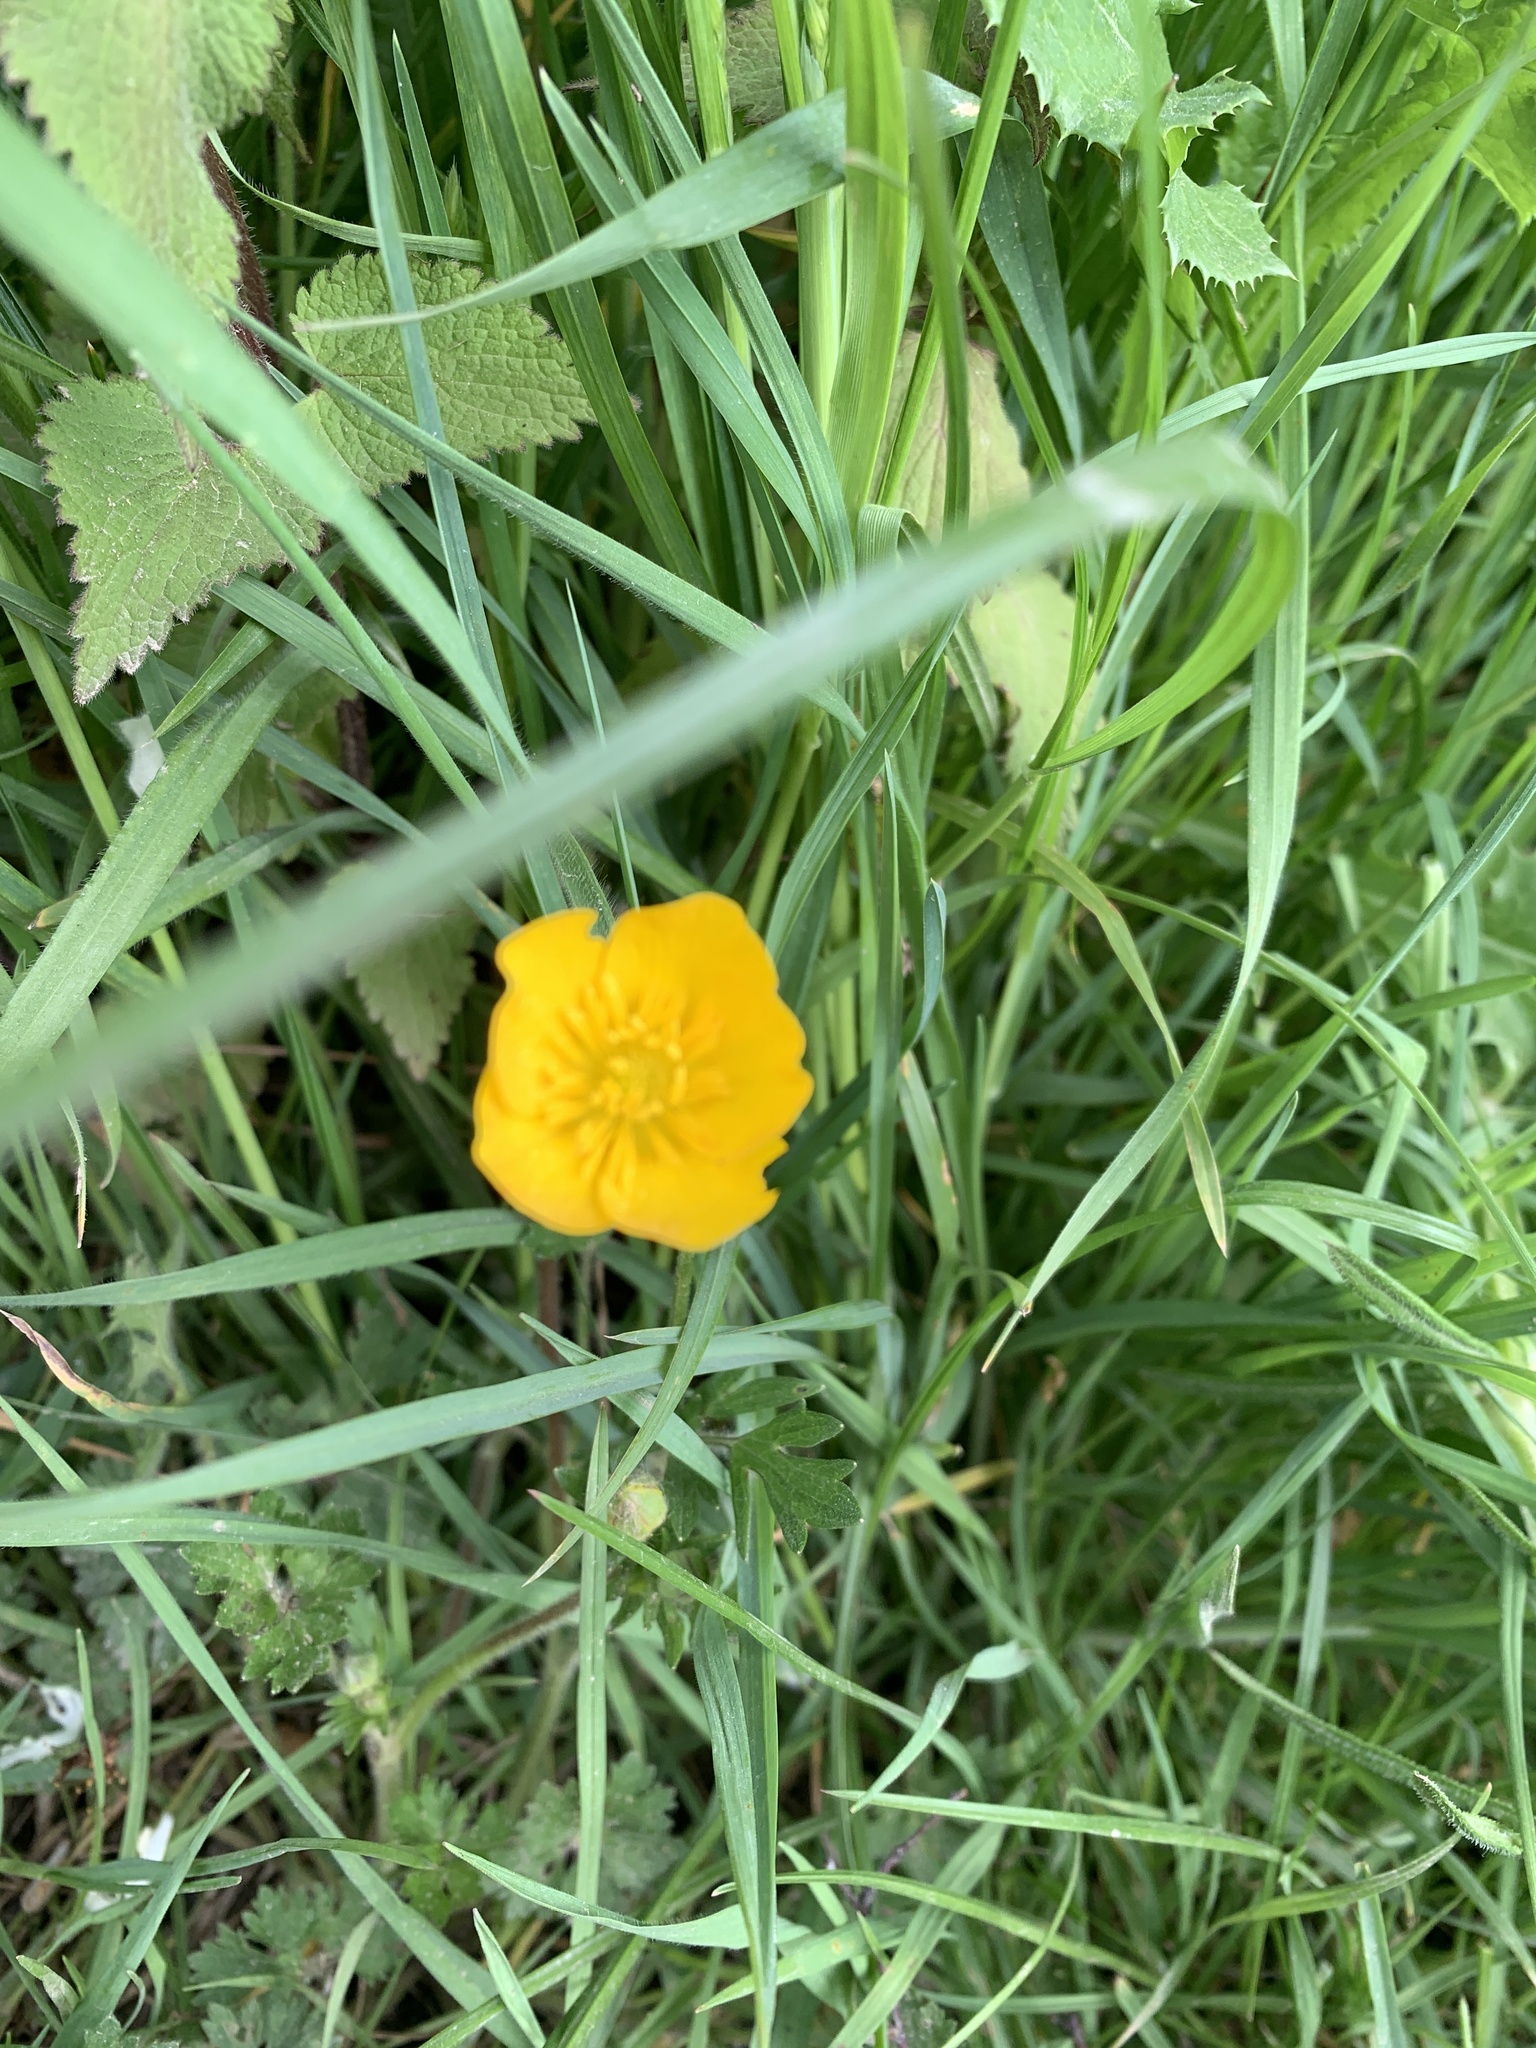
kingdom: Plantae
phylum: Tracheophyta
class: Magnoliopsida
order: Ranunculales
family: Ranunculaceae
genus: Ranunculus
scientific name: Ranunculus acris
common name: Meadow buttercup
